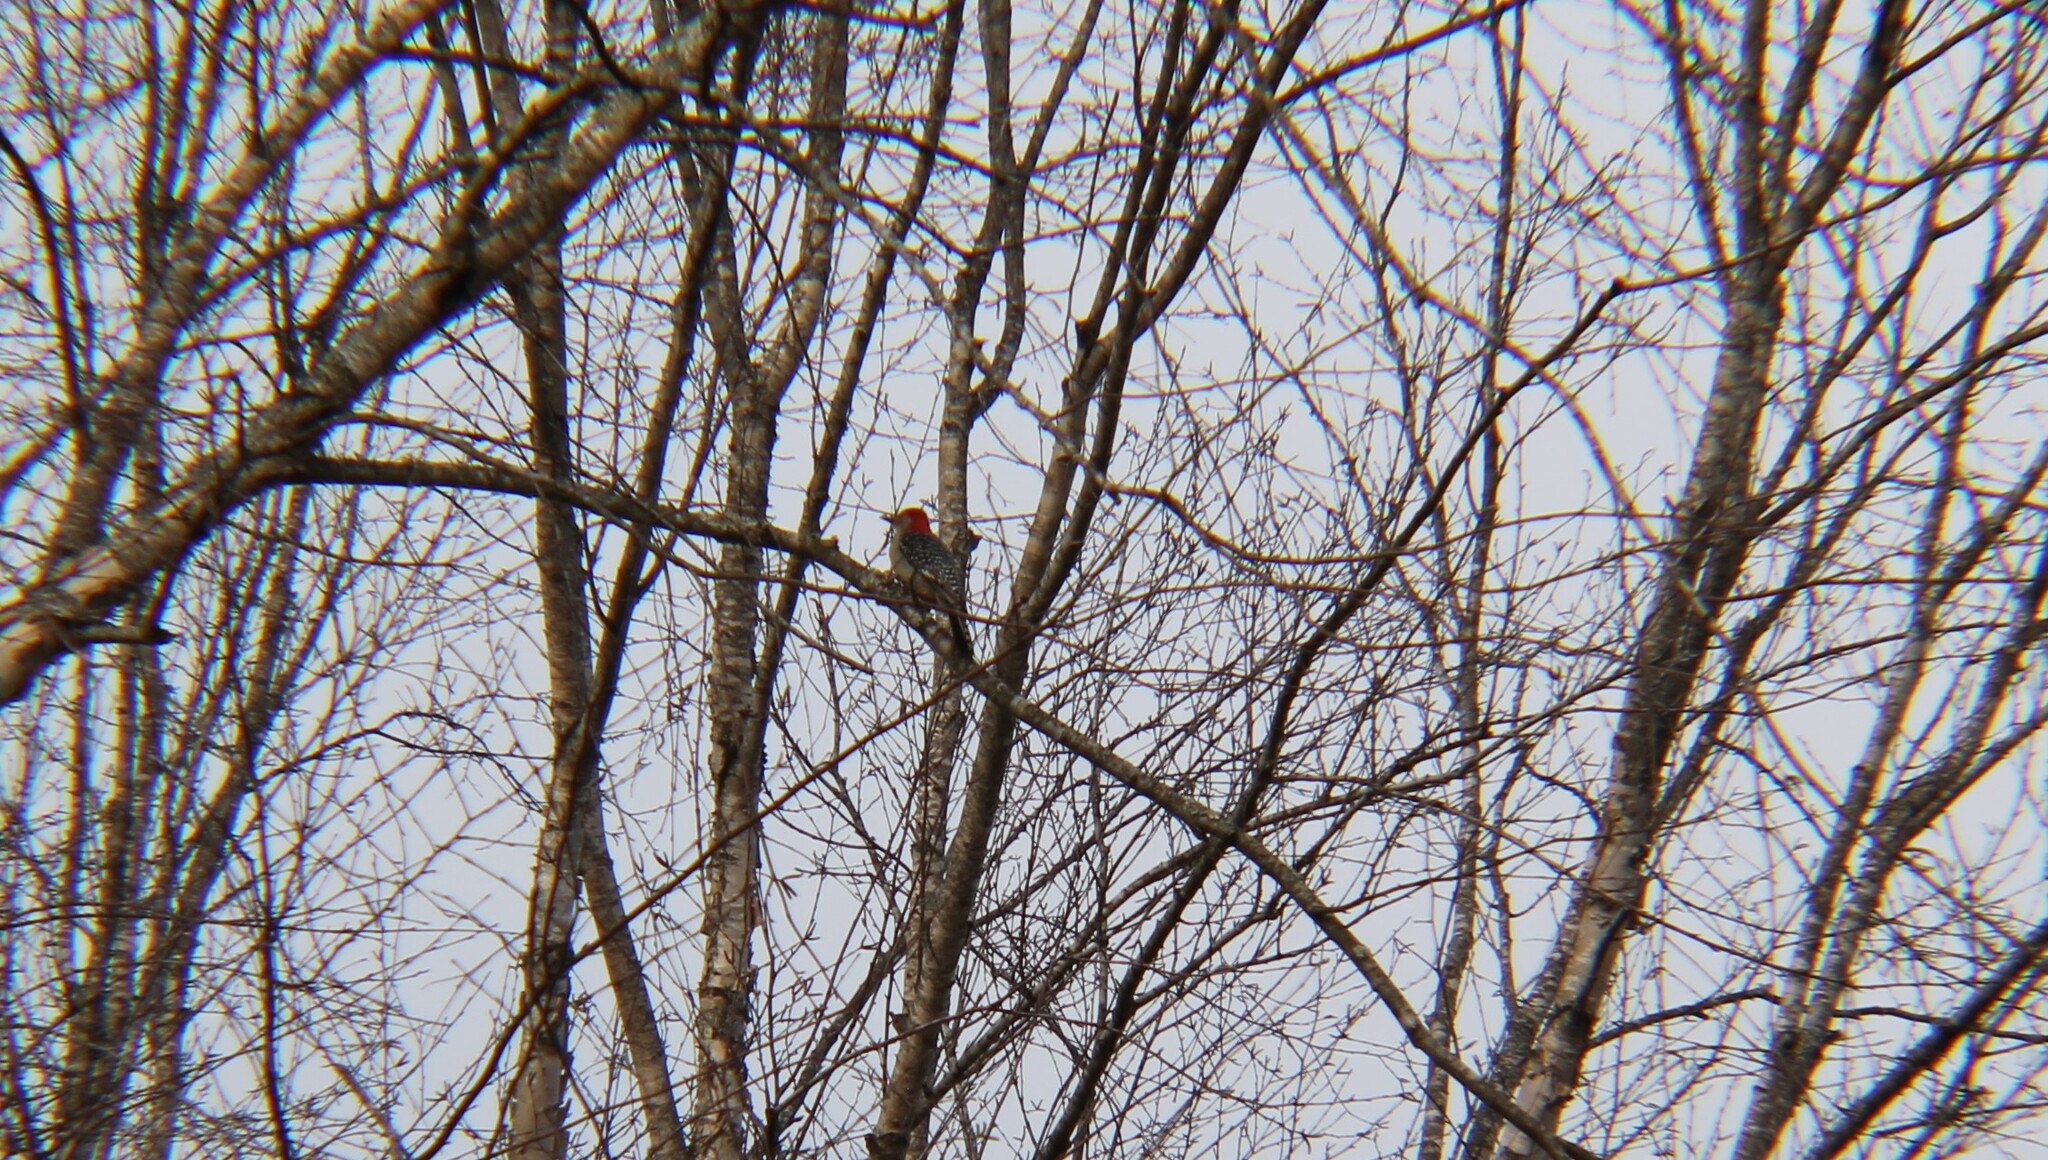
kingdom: Animalia
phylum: Chordata
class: Aves
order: Piciformes
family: Picidae
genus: Melanerpes
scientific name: Melanerpes carolinus
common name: Red-bellied woodpecker
